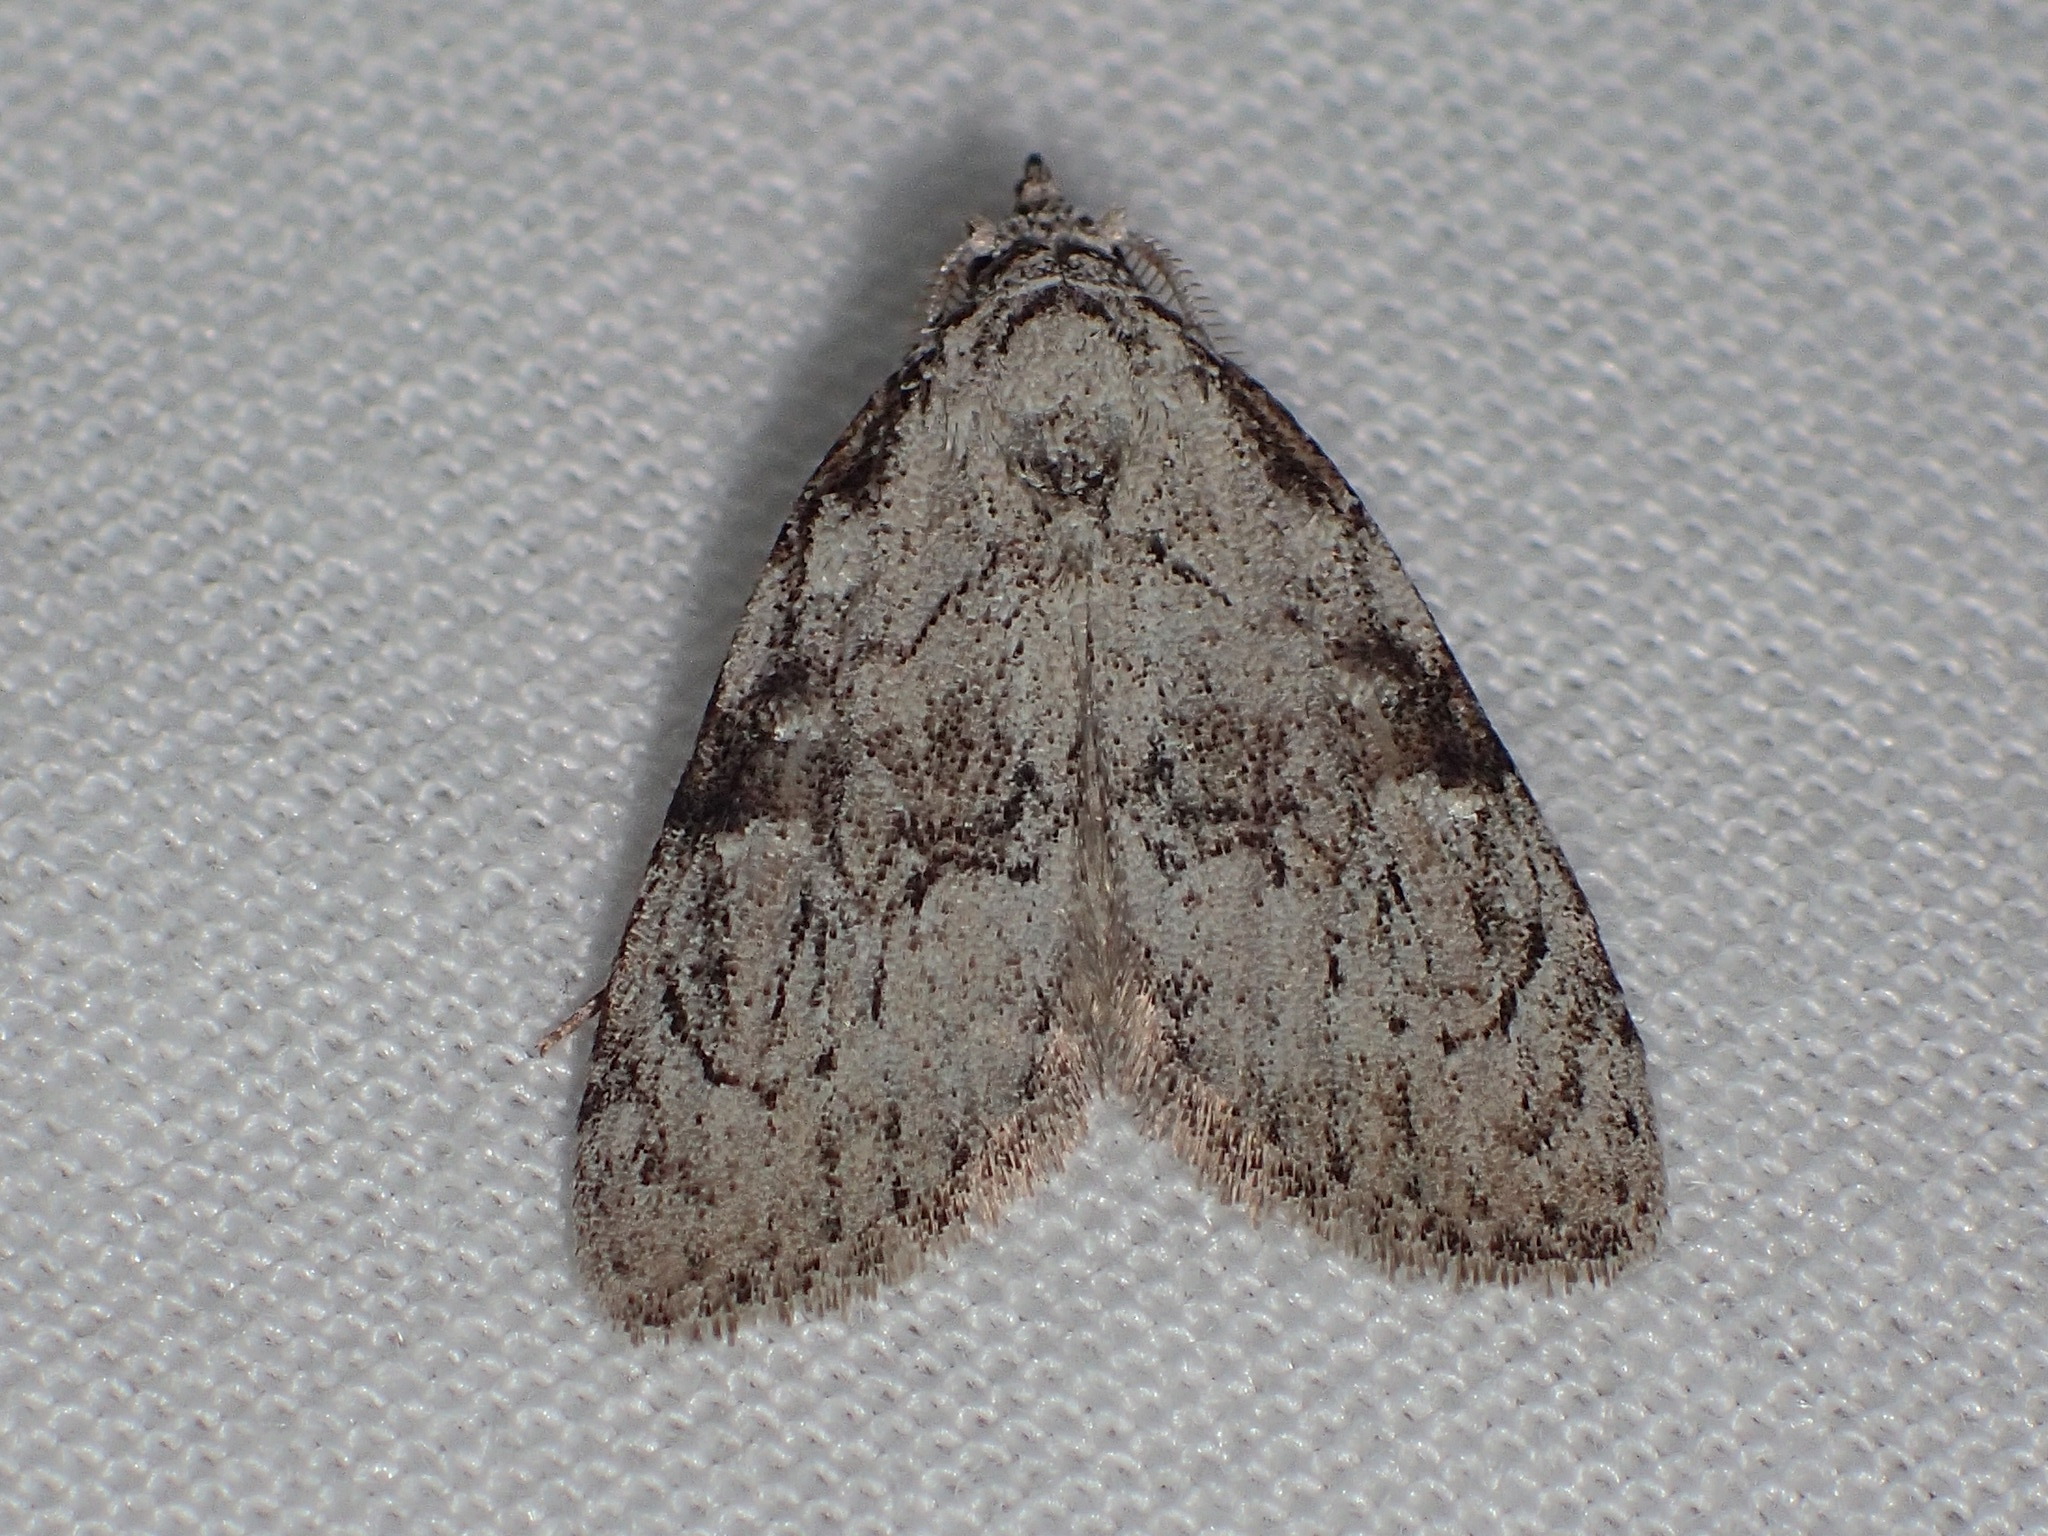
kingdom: Animalia
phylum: Arthropoda
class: Insecta
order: Lepidoptera
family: Nolidae
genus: Meganola
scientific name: Meganola minuscula
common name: Confused meganola moth
